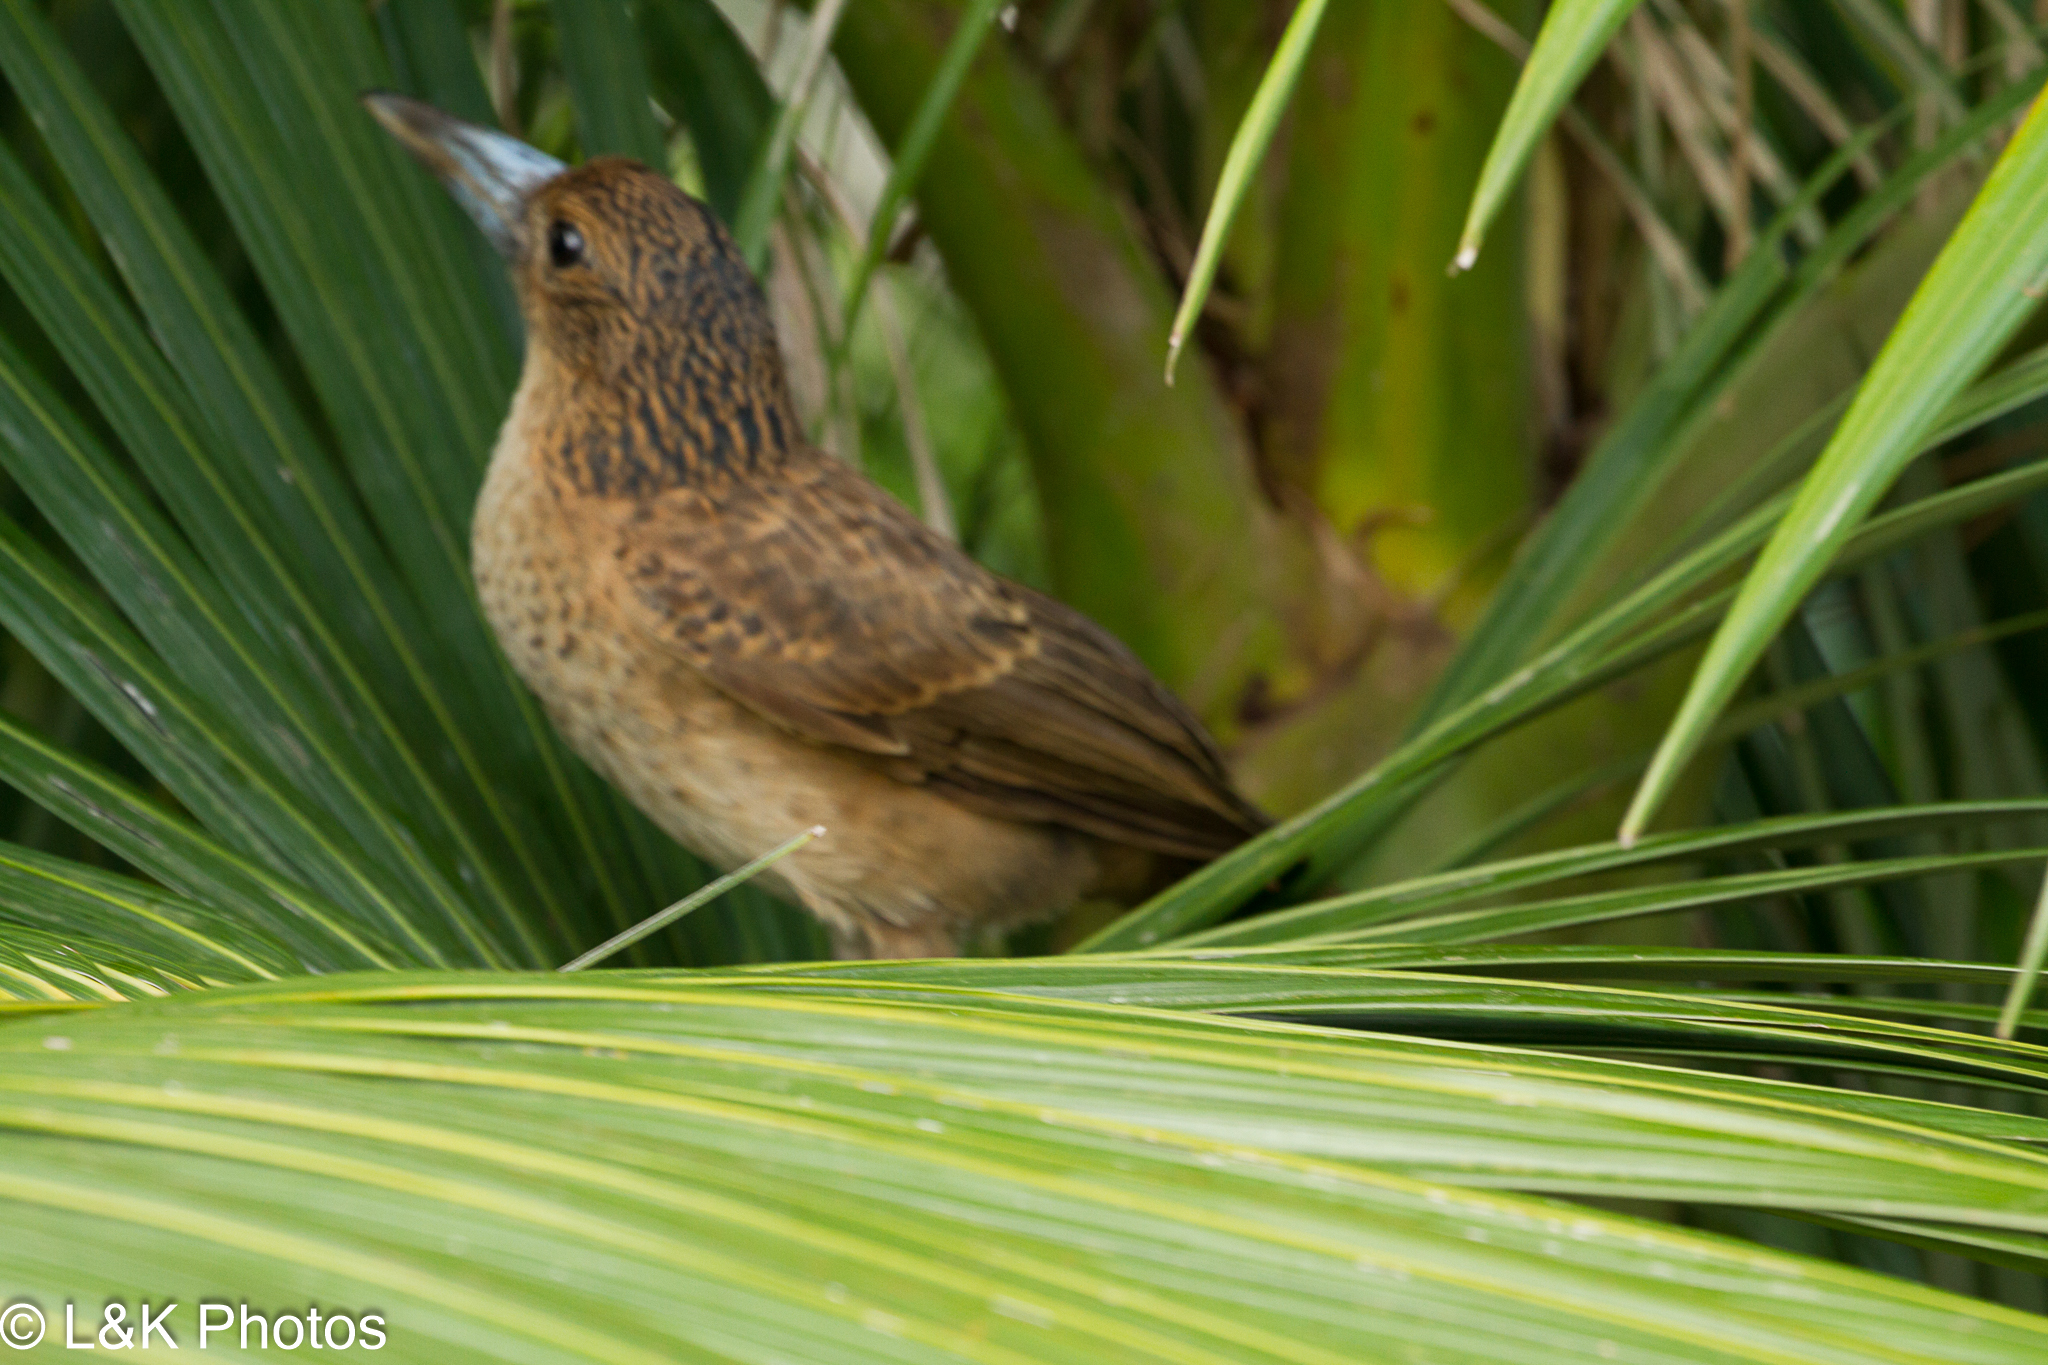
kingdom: Animalia
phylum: Chordata
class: Aves
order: Passeriformes
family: Artamidae
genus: Melloria
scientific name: Melloria quoyi
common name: Black butcherbird
